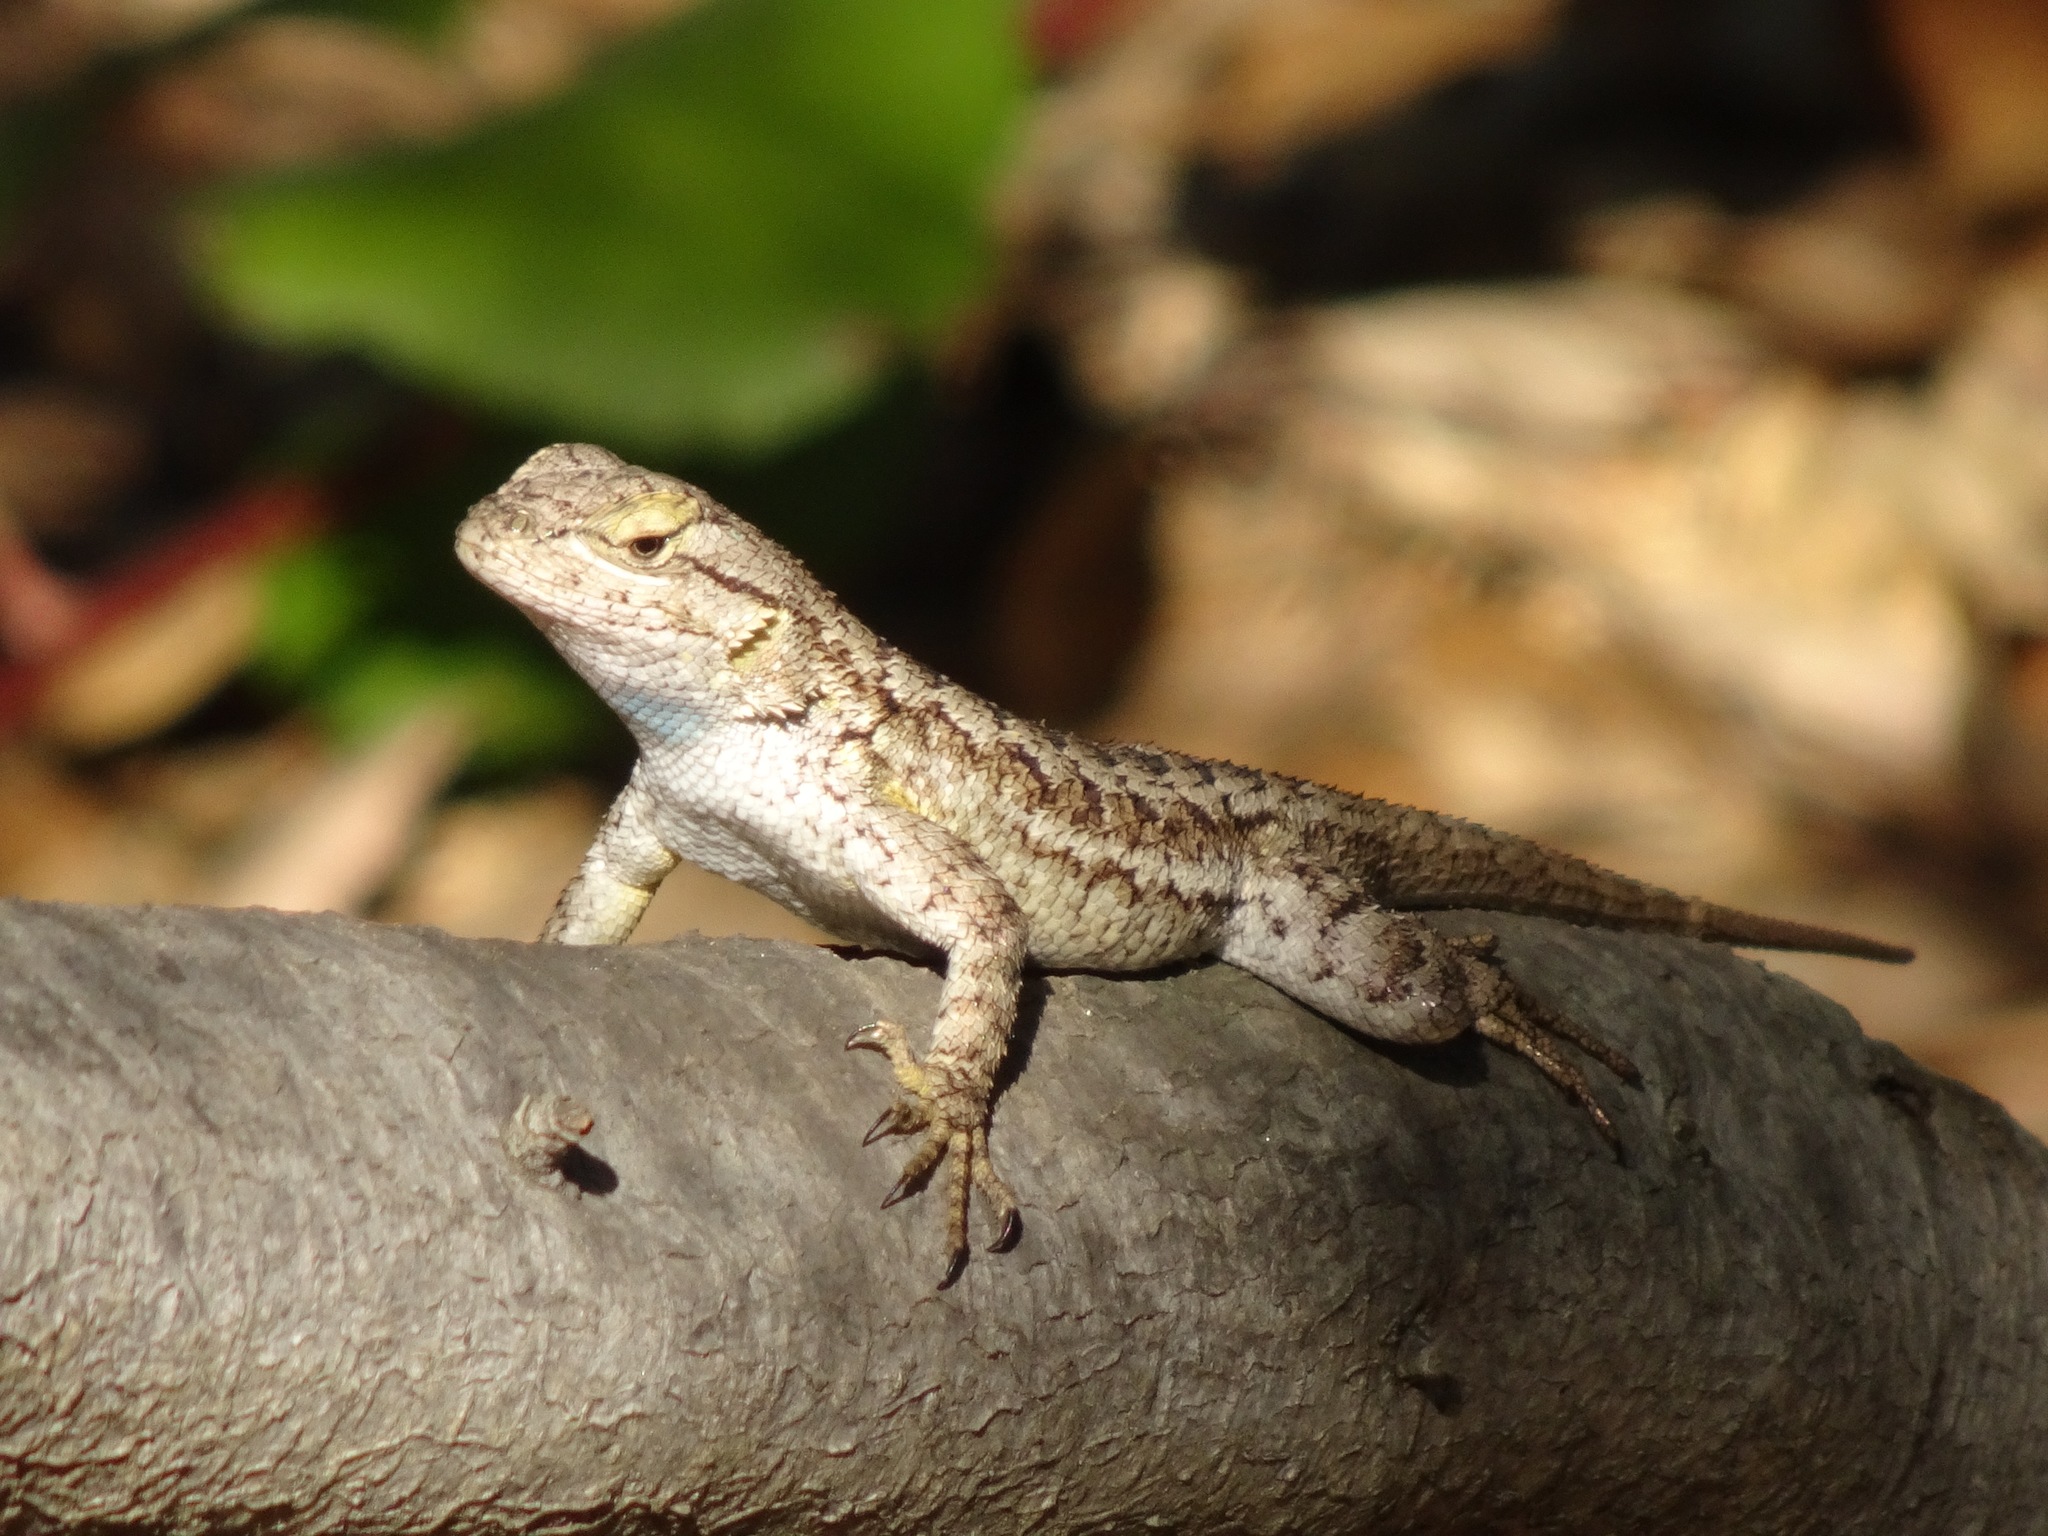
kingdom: Animalia
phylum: Chordata
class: Squamata
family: Phrynosomatidae
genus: Sceloporus
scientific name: Sceloporus occidentalis
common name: Western fence lizard
